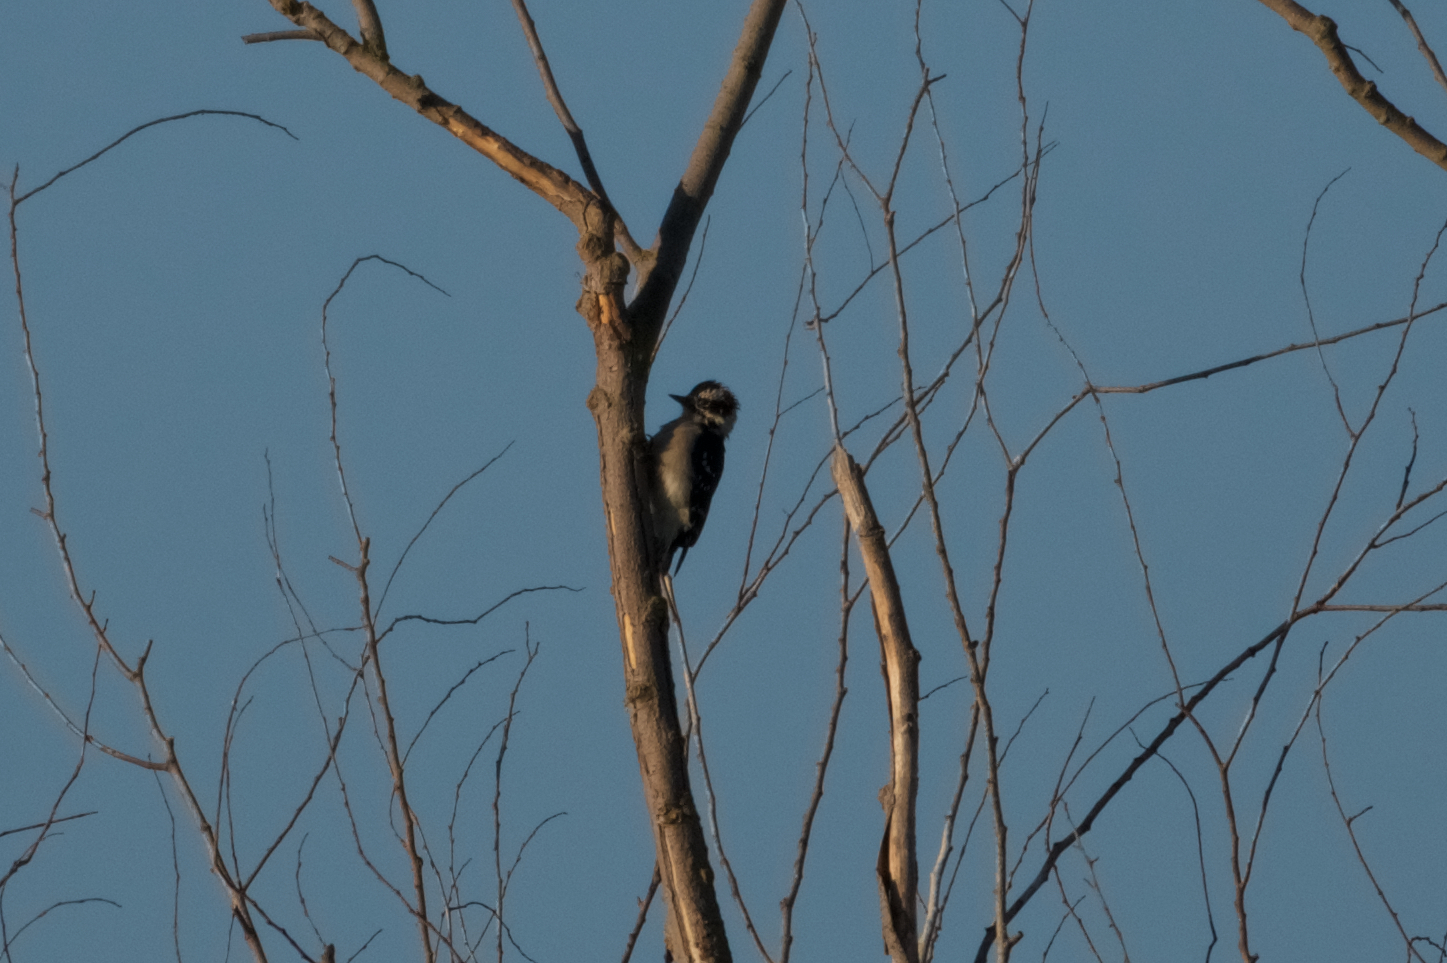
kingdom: Animalia
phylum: Chordata
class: Aves
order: Piciformes
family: Picidae
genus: Dryobates
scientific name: Dryobates pubescens
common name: Downy woodpecker
